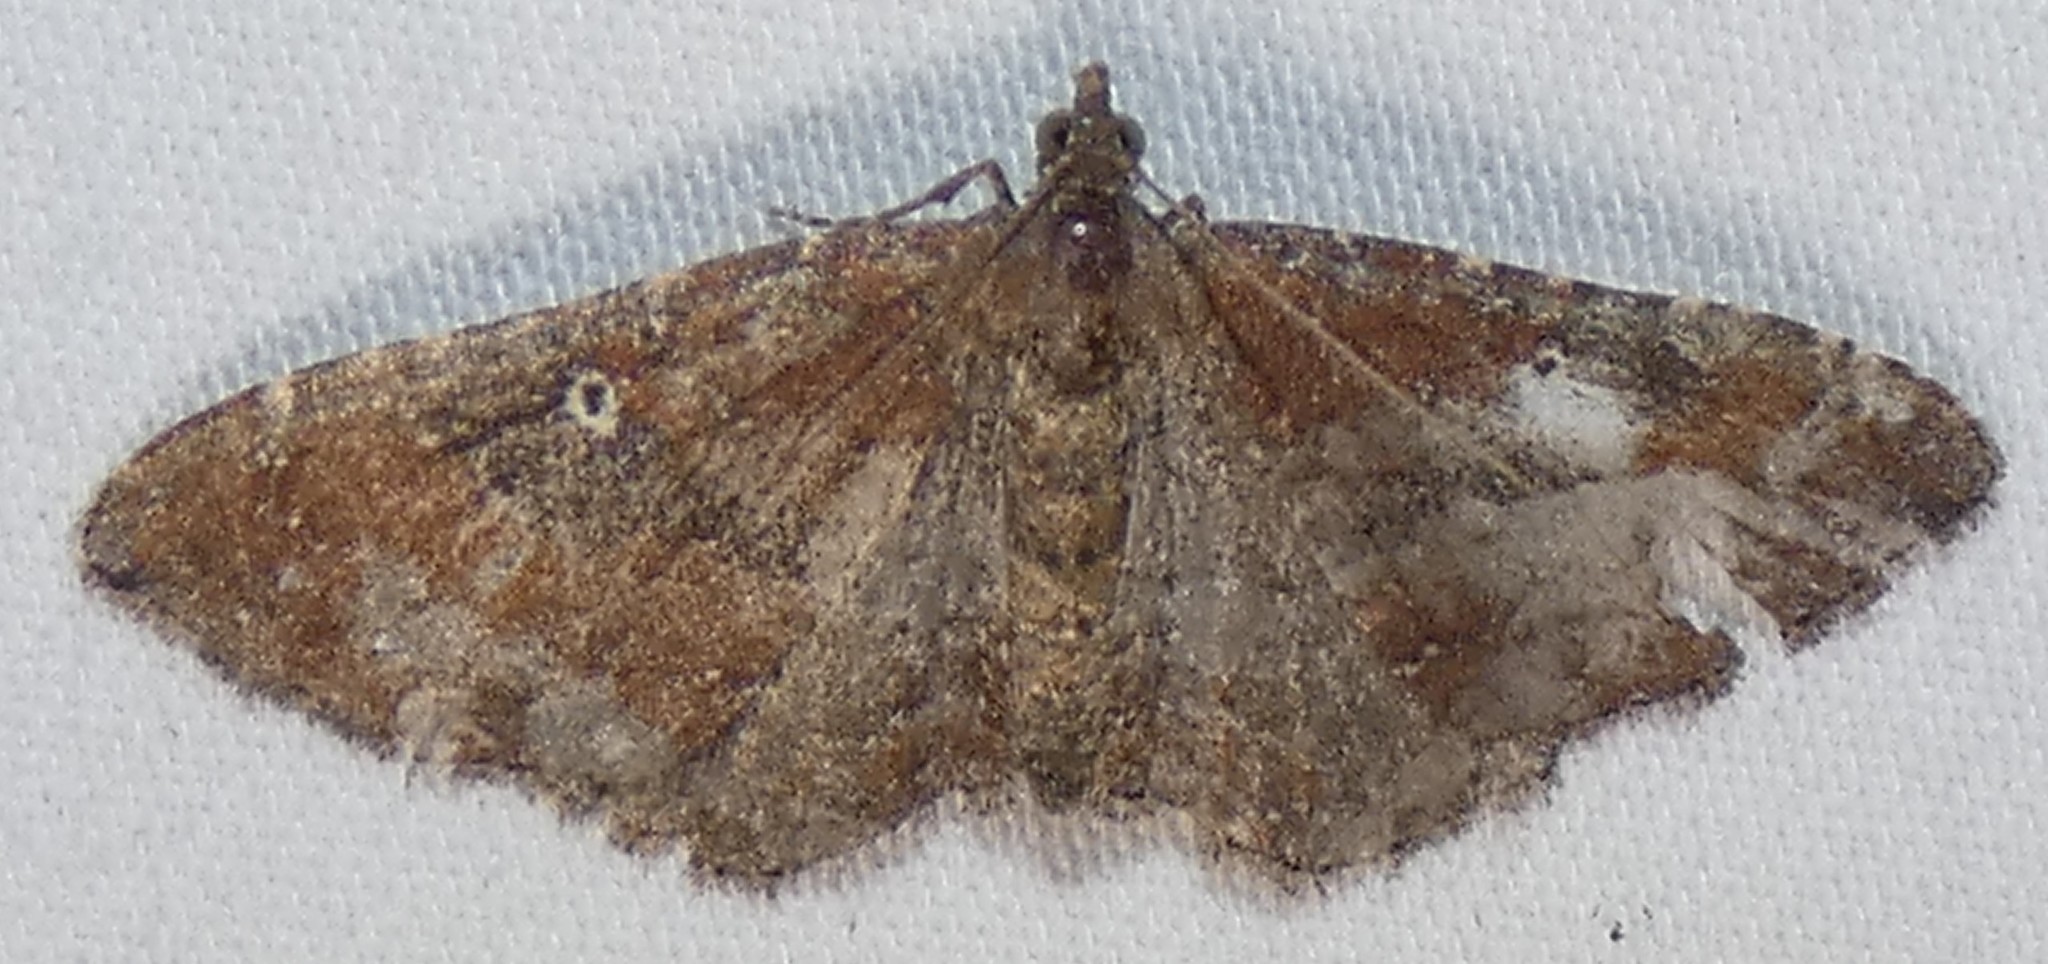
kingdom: Animalia
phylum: Arthropoda
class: Insecta
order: Lepidoptera
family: Geometridae
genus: Orthonama
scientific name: Orthonama obstipata
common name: The gem
